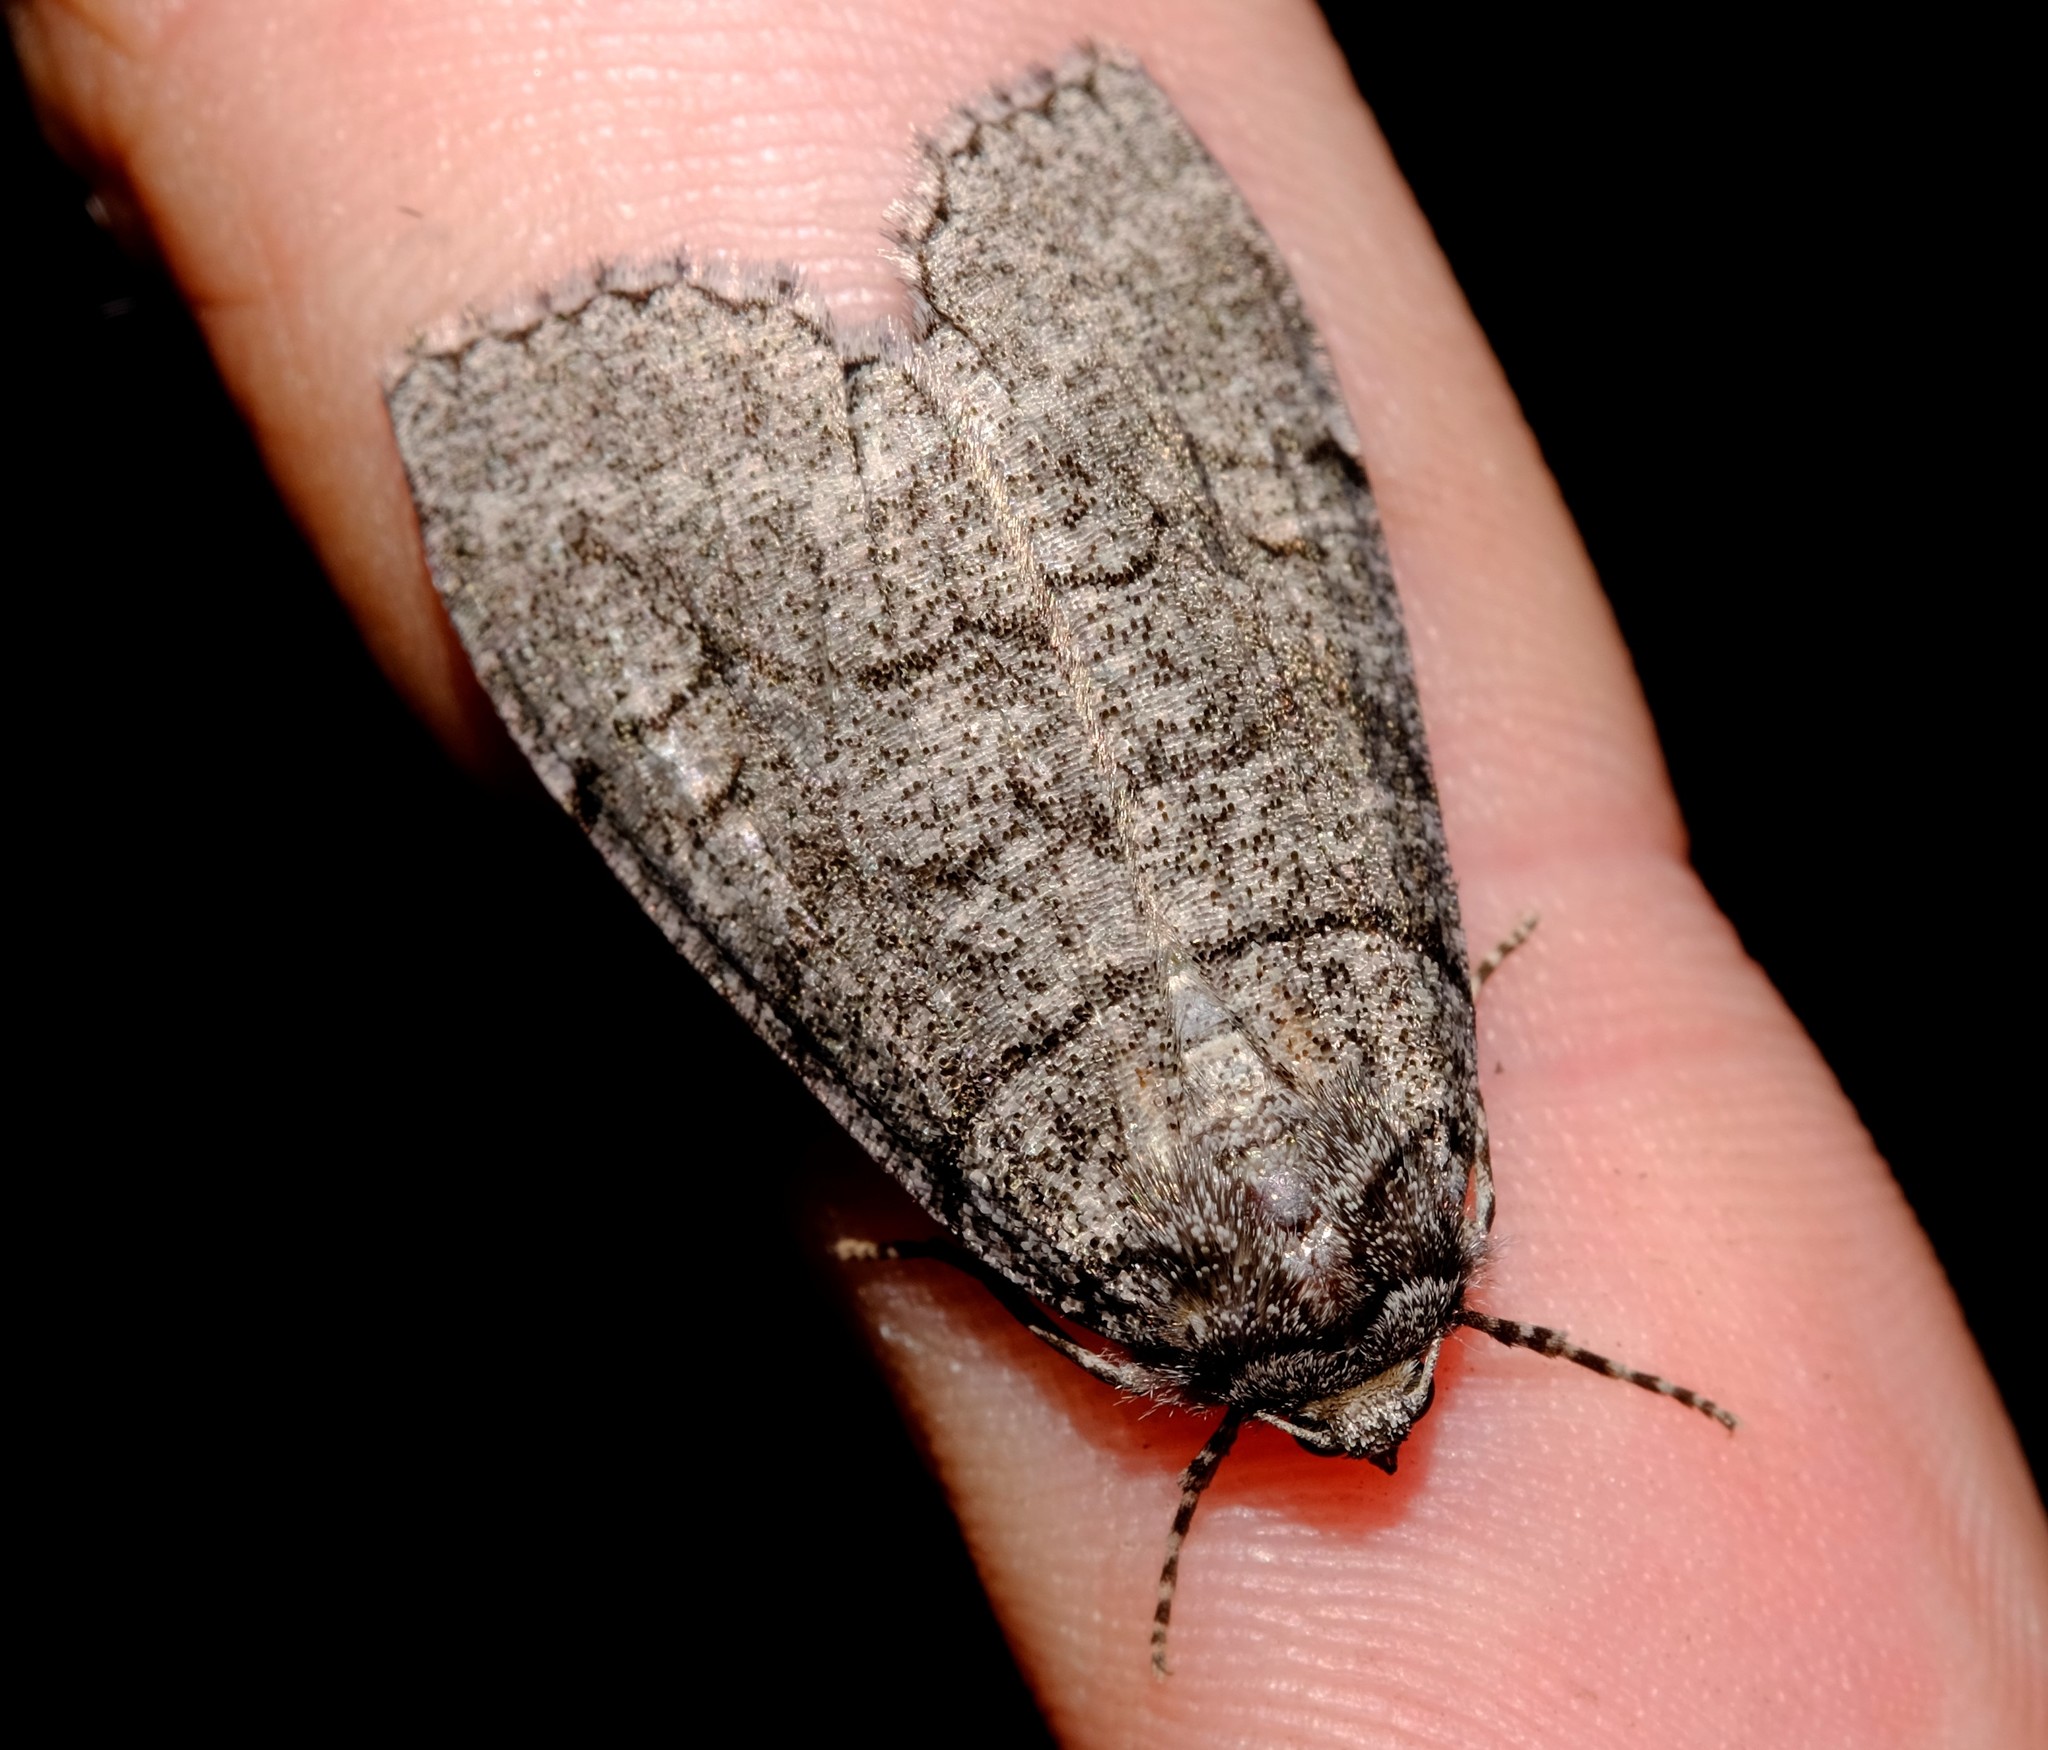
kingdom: Animalia
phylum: Arthropoda
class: Insecta
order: Lepidoptera
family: Geometridae
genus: Smyriodes
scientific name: Smyriodes aplectaria
